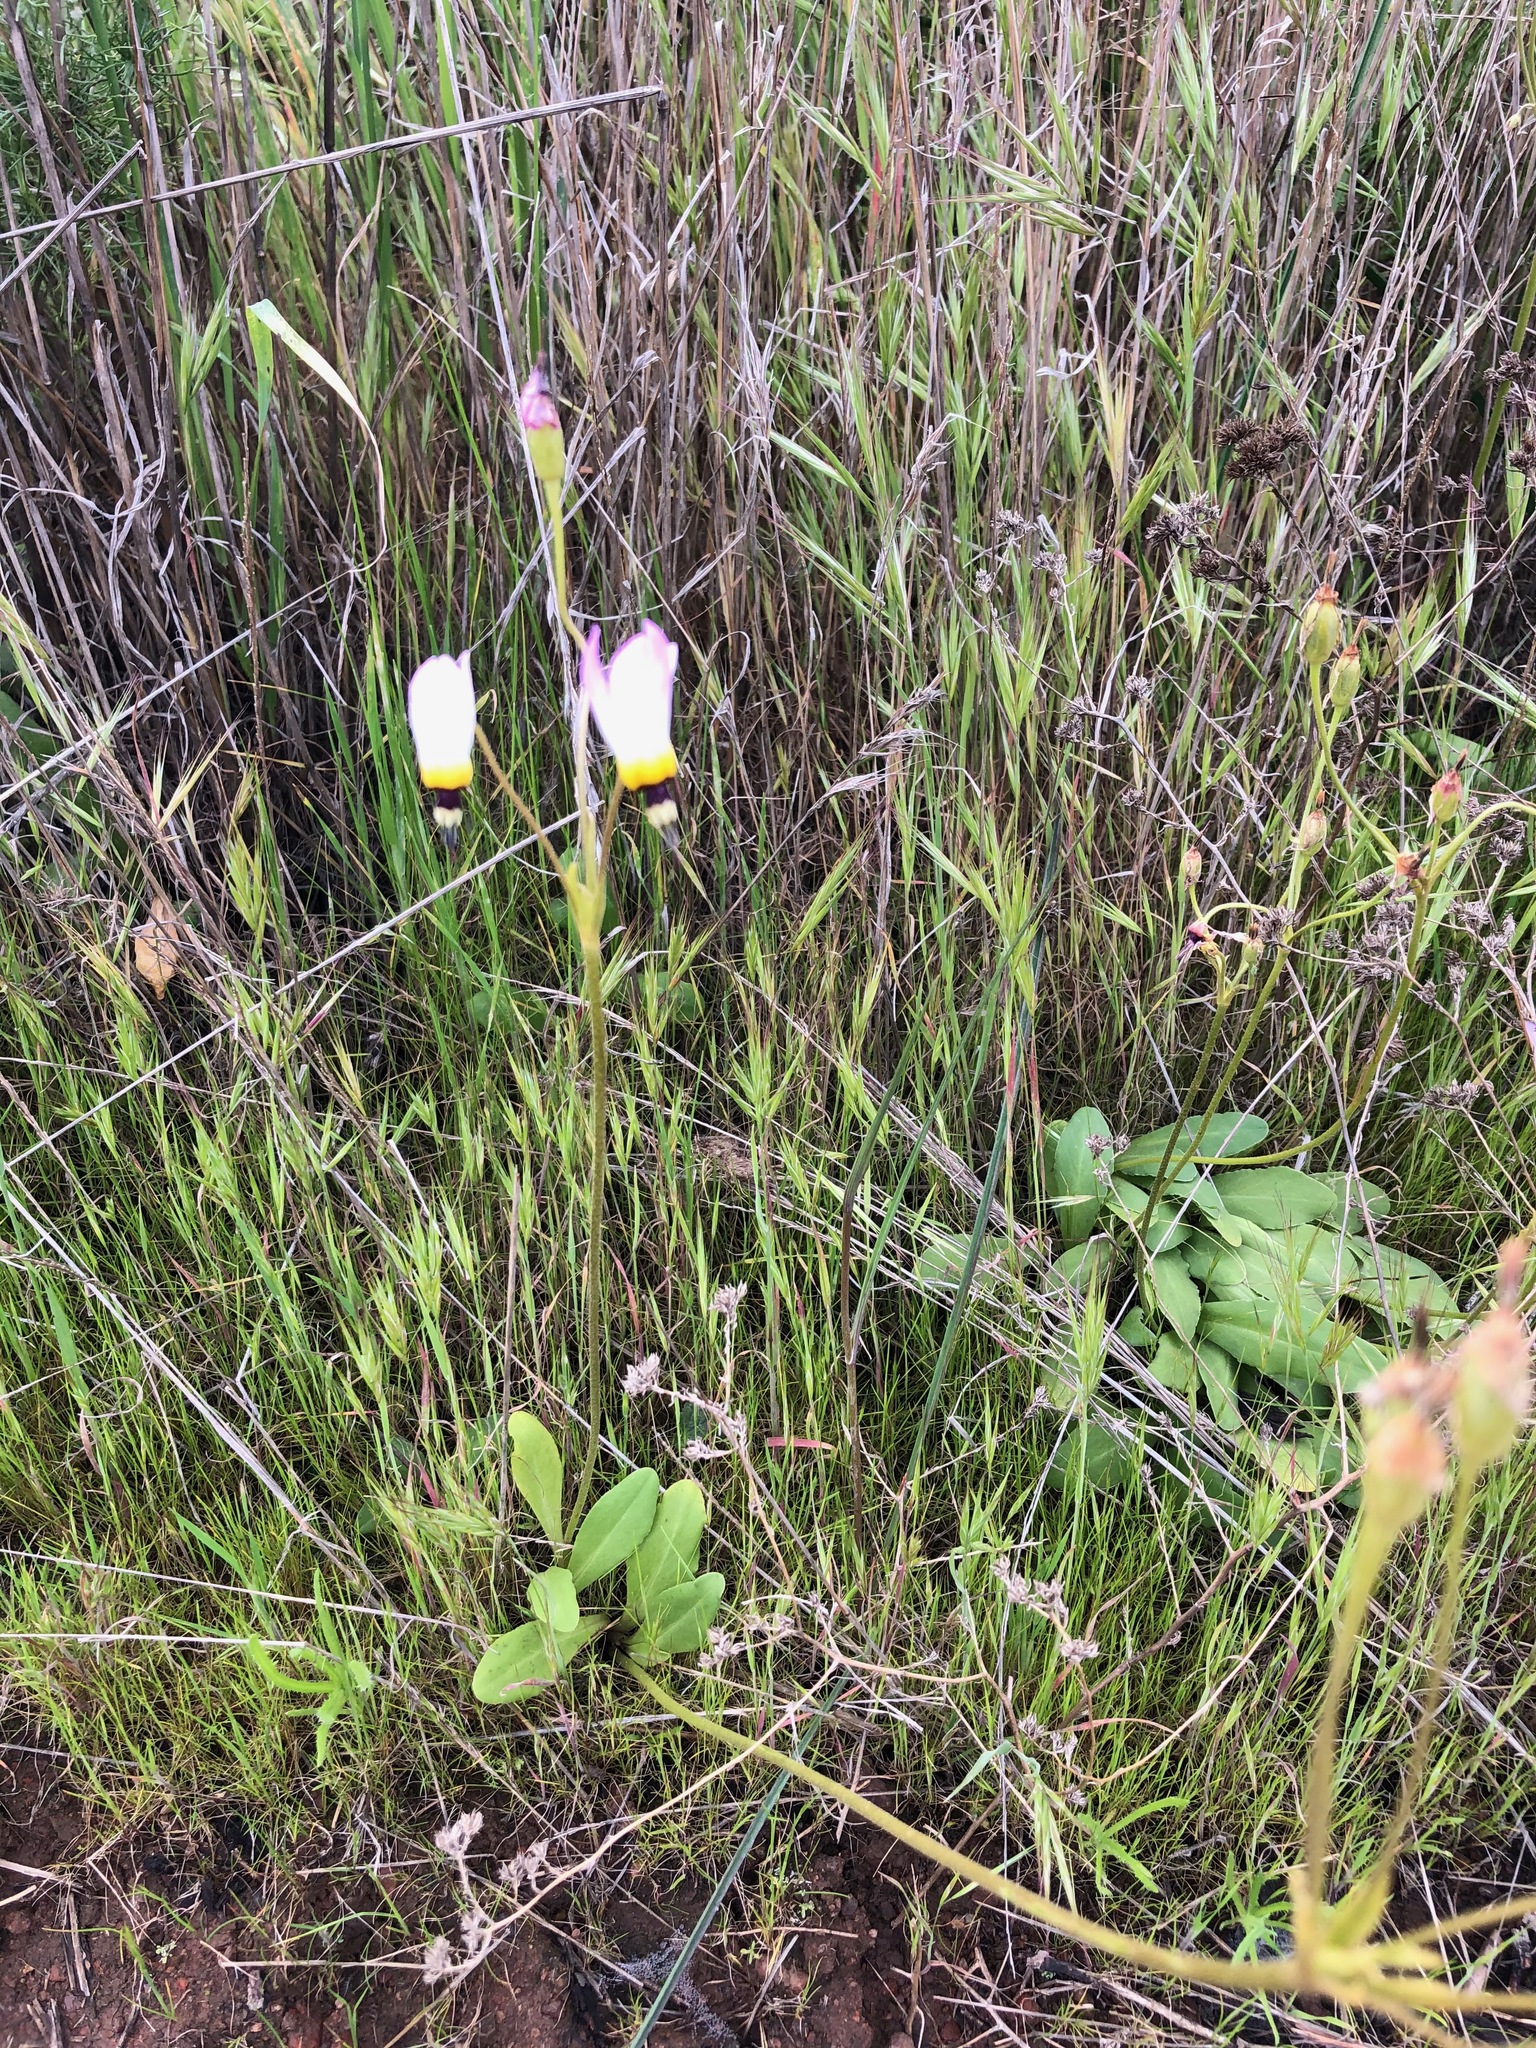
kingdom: Plantae
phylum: Tracheophyta
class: Magnoliopsida
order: Ericales
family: Primulaceae
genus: Dodecatheon
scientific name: Dodecatheon clevelandii
